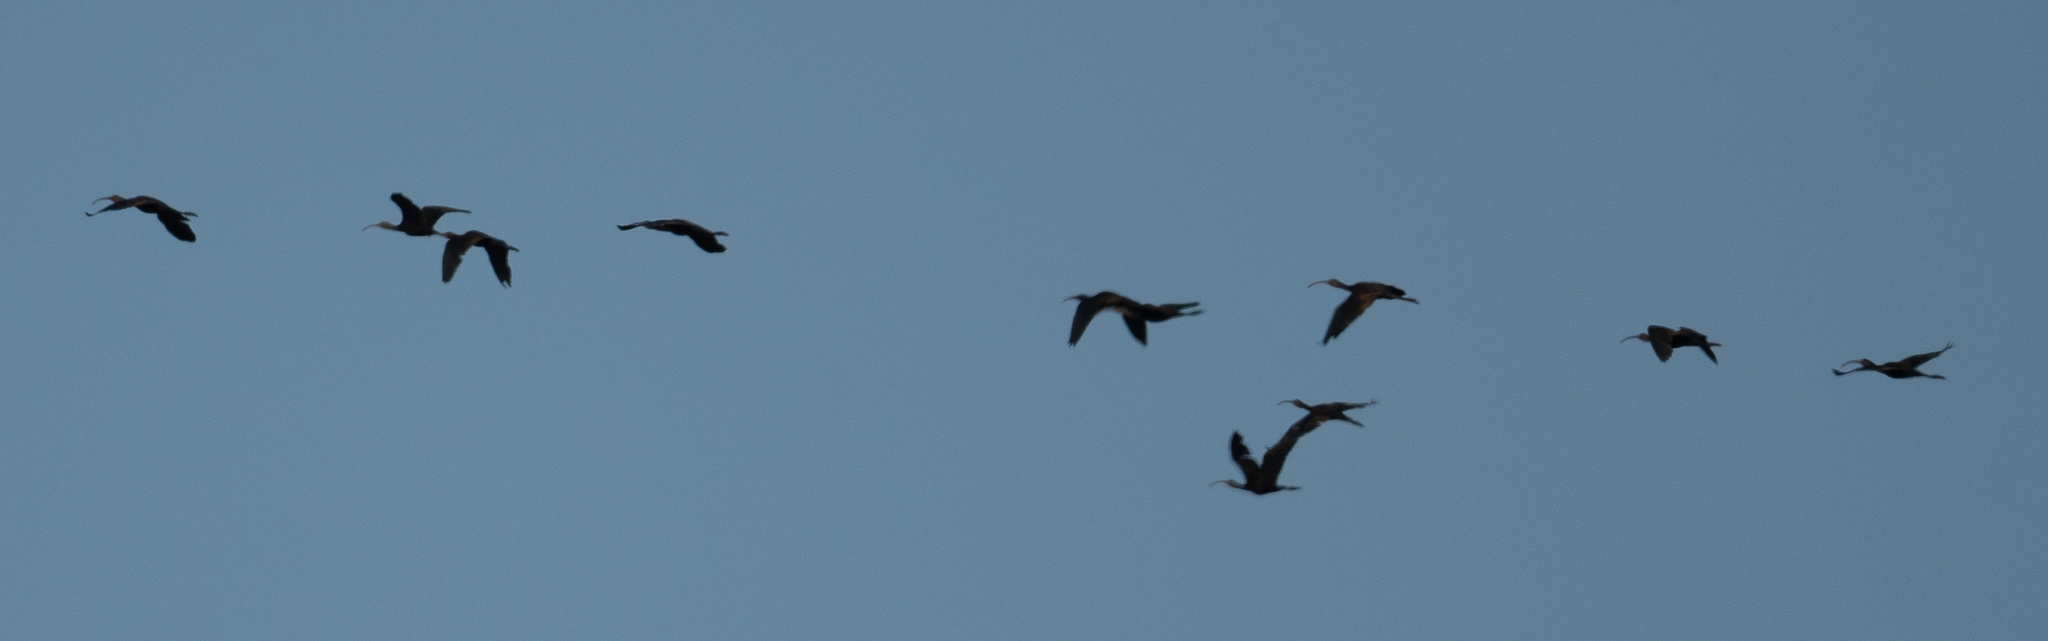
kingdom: Animalia
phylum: Chordata
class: Aves
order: Pelecaniformes
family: Threskiornithidae
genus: Plegadis
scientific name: Plegadis chihi
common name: White-faced ibis
